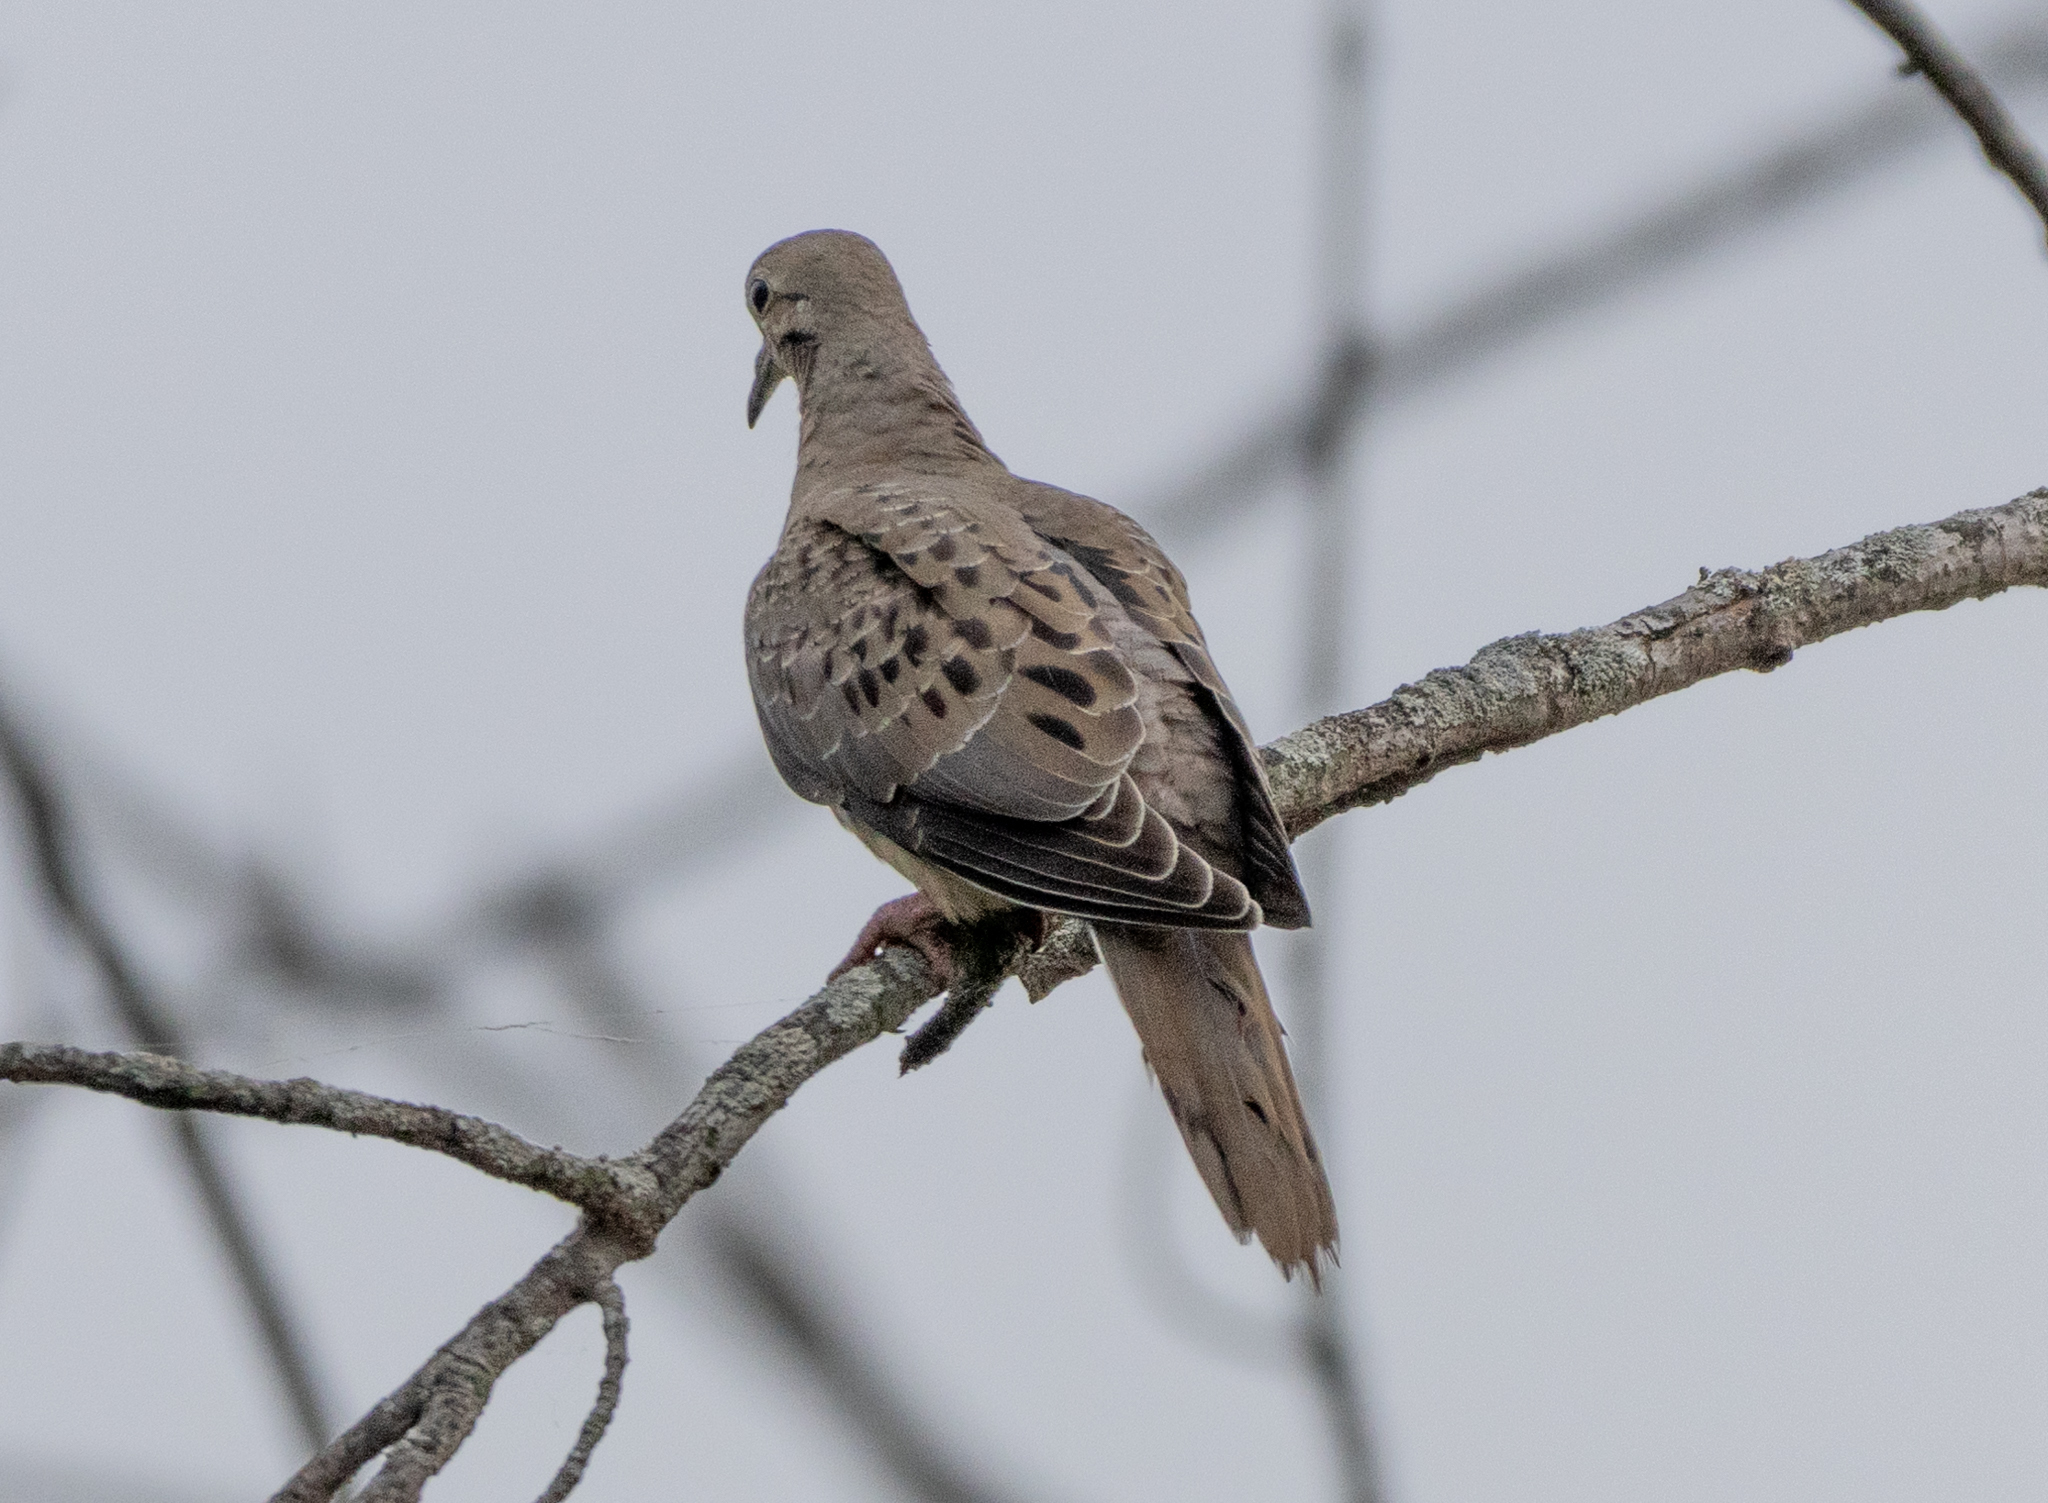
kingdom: Animalia
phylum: Chordata
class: Aves
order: Columbiformes
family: Columbidae
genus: Zenaida
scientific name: Zenaida macroura
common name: Mourning dove
